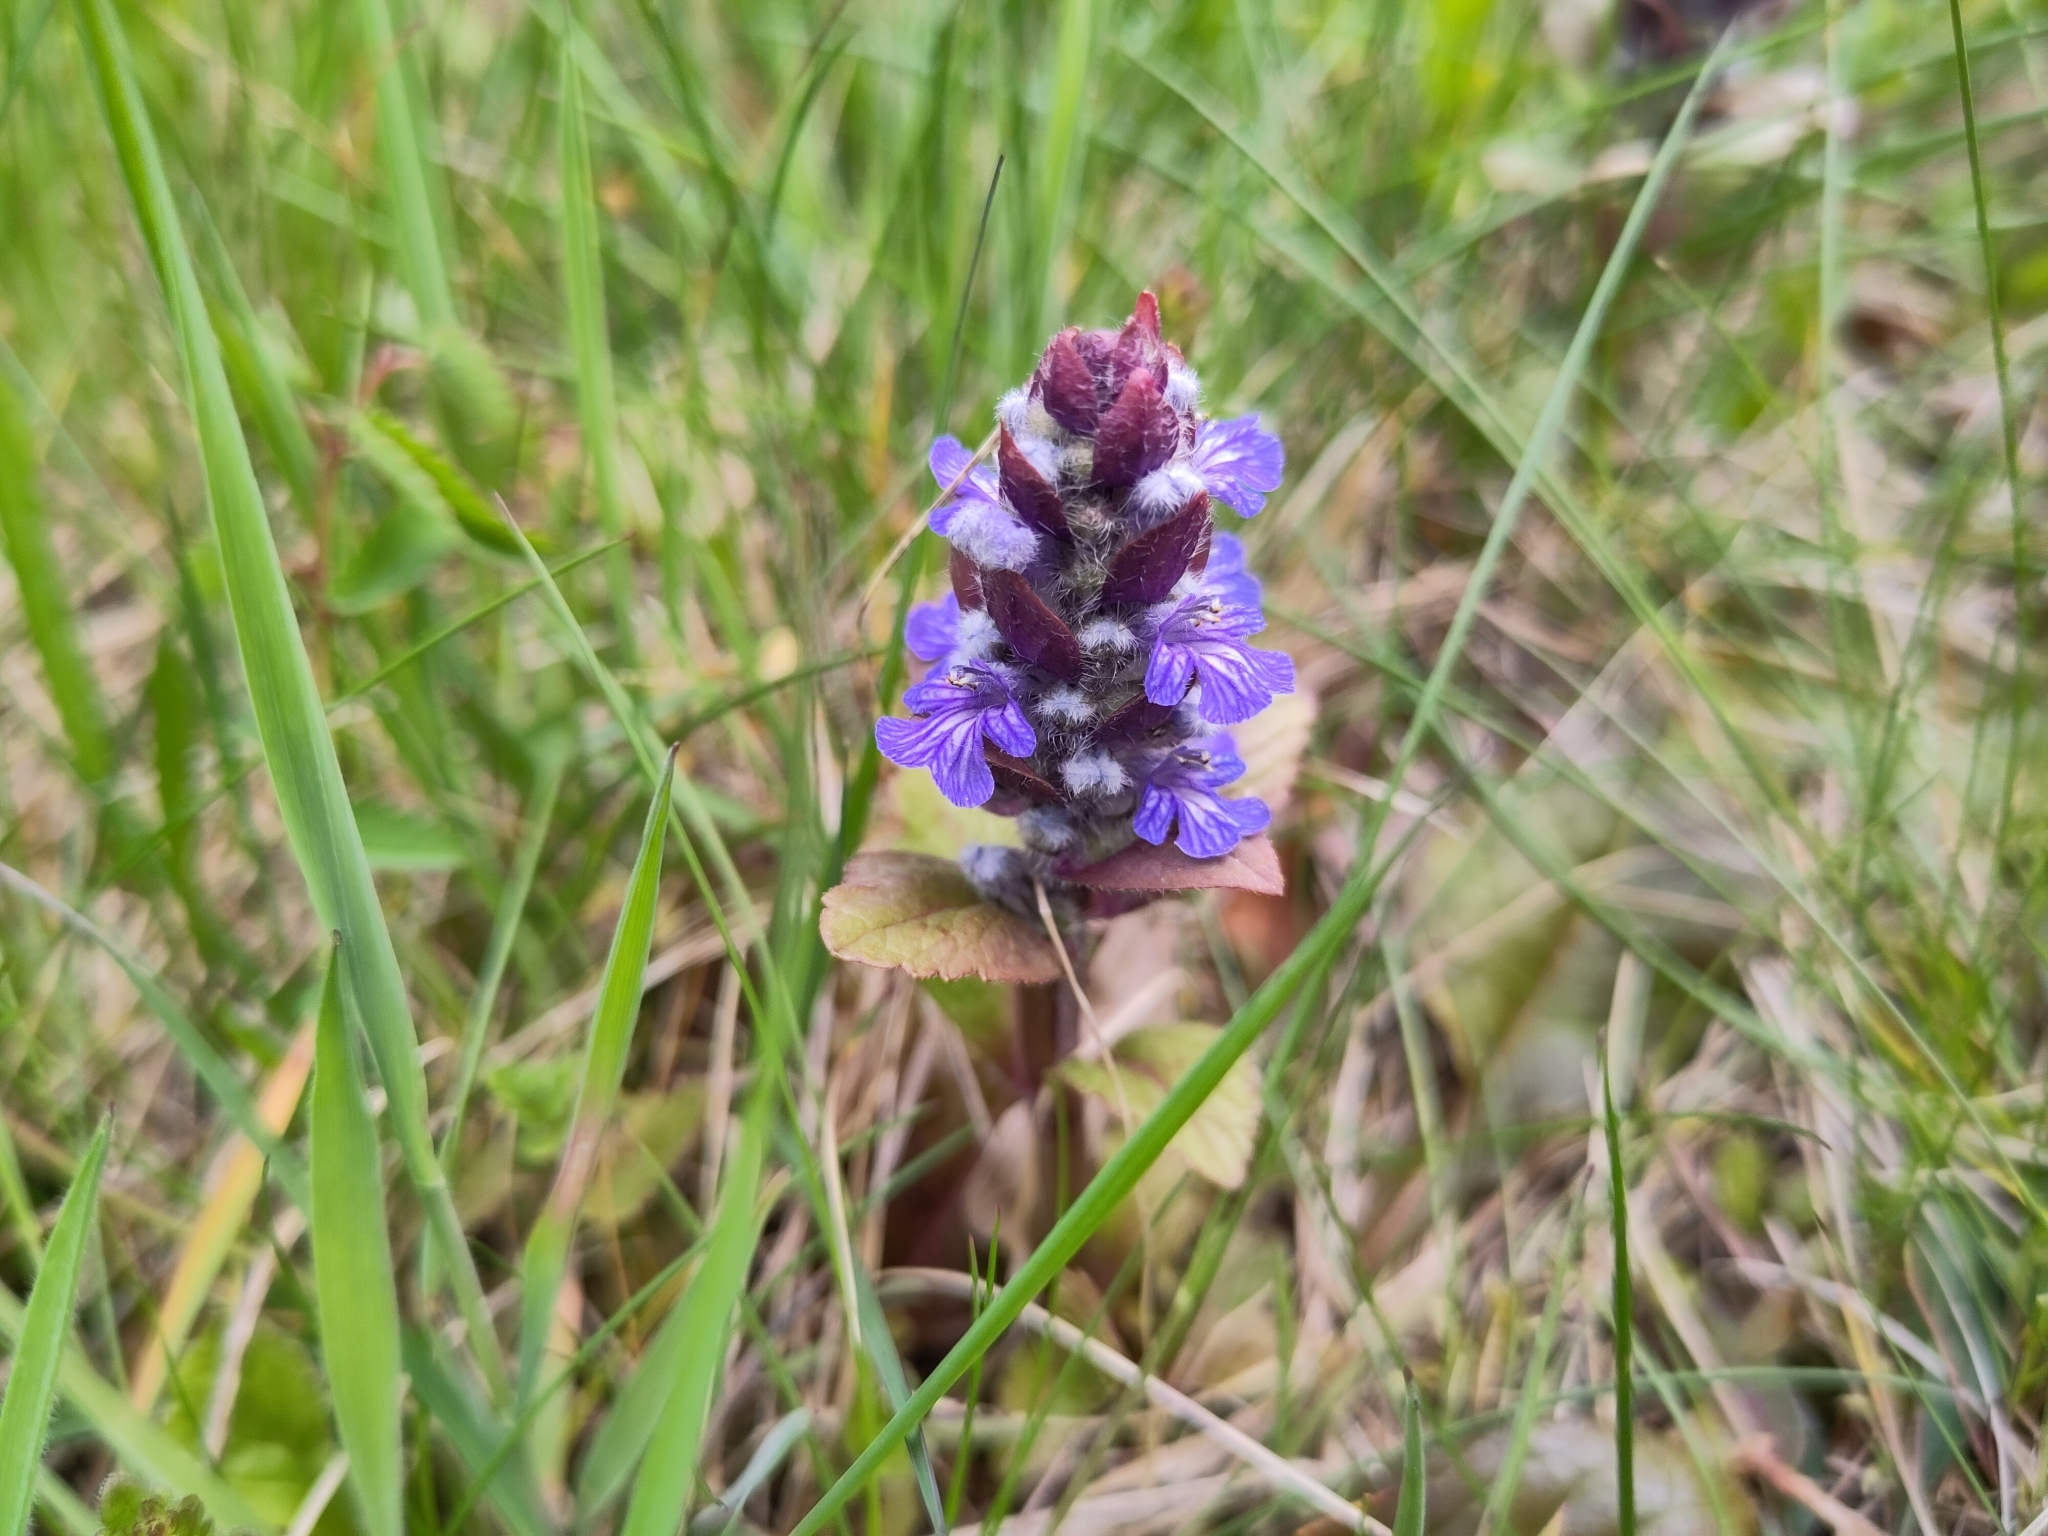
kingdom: Plantae
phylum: Tracheophyta
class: Magnoliopsida
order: Lamiales
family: Lamiaceae
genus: Ajuga
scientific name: Ajuga reptans
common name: Bugle
